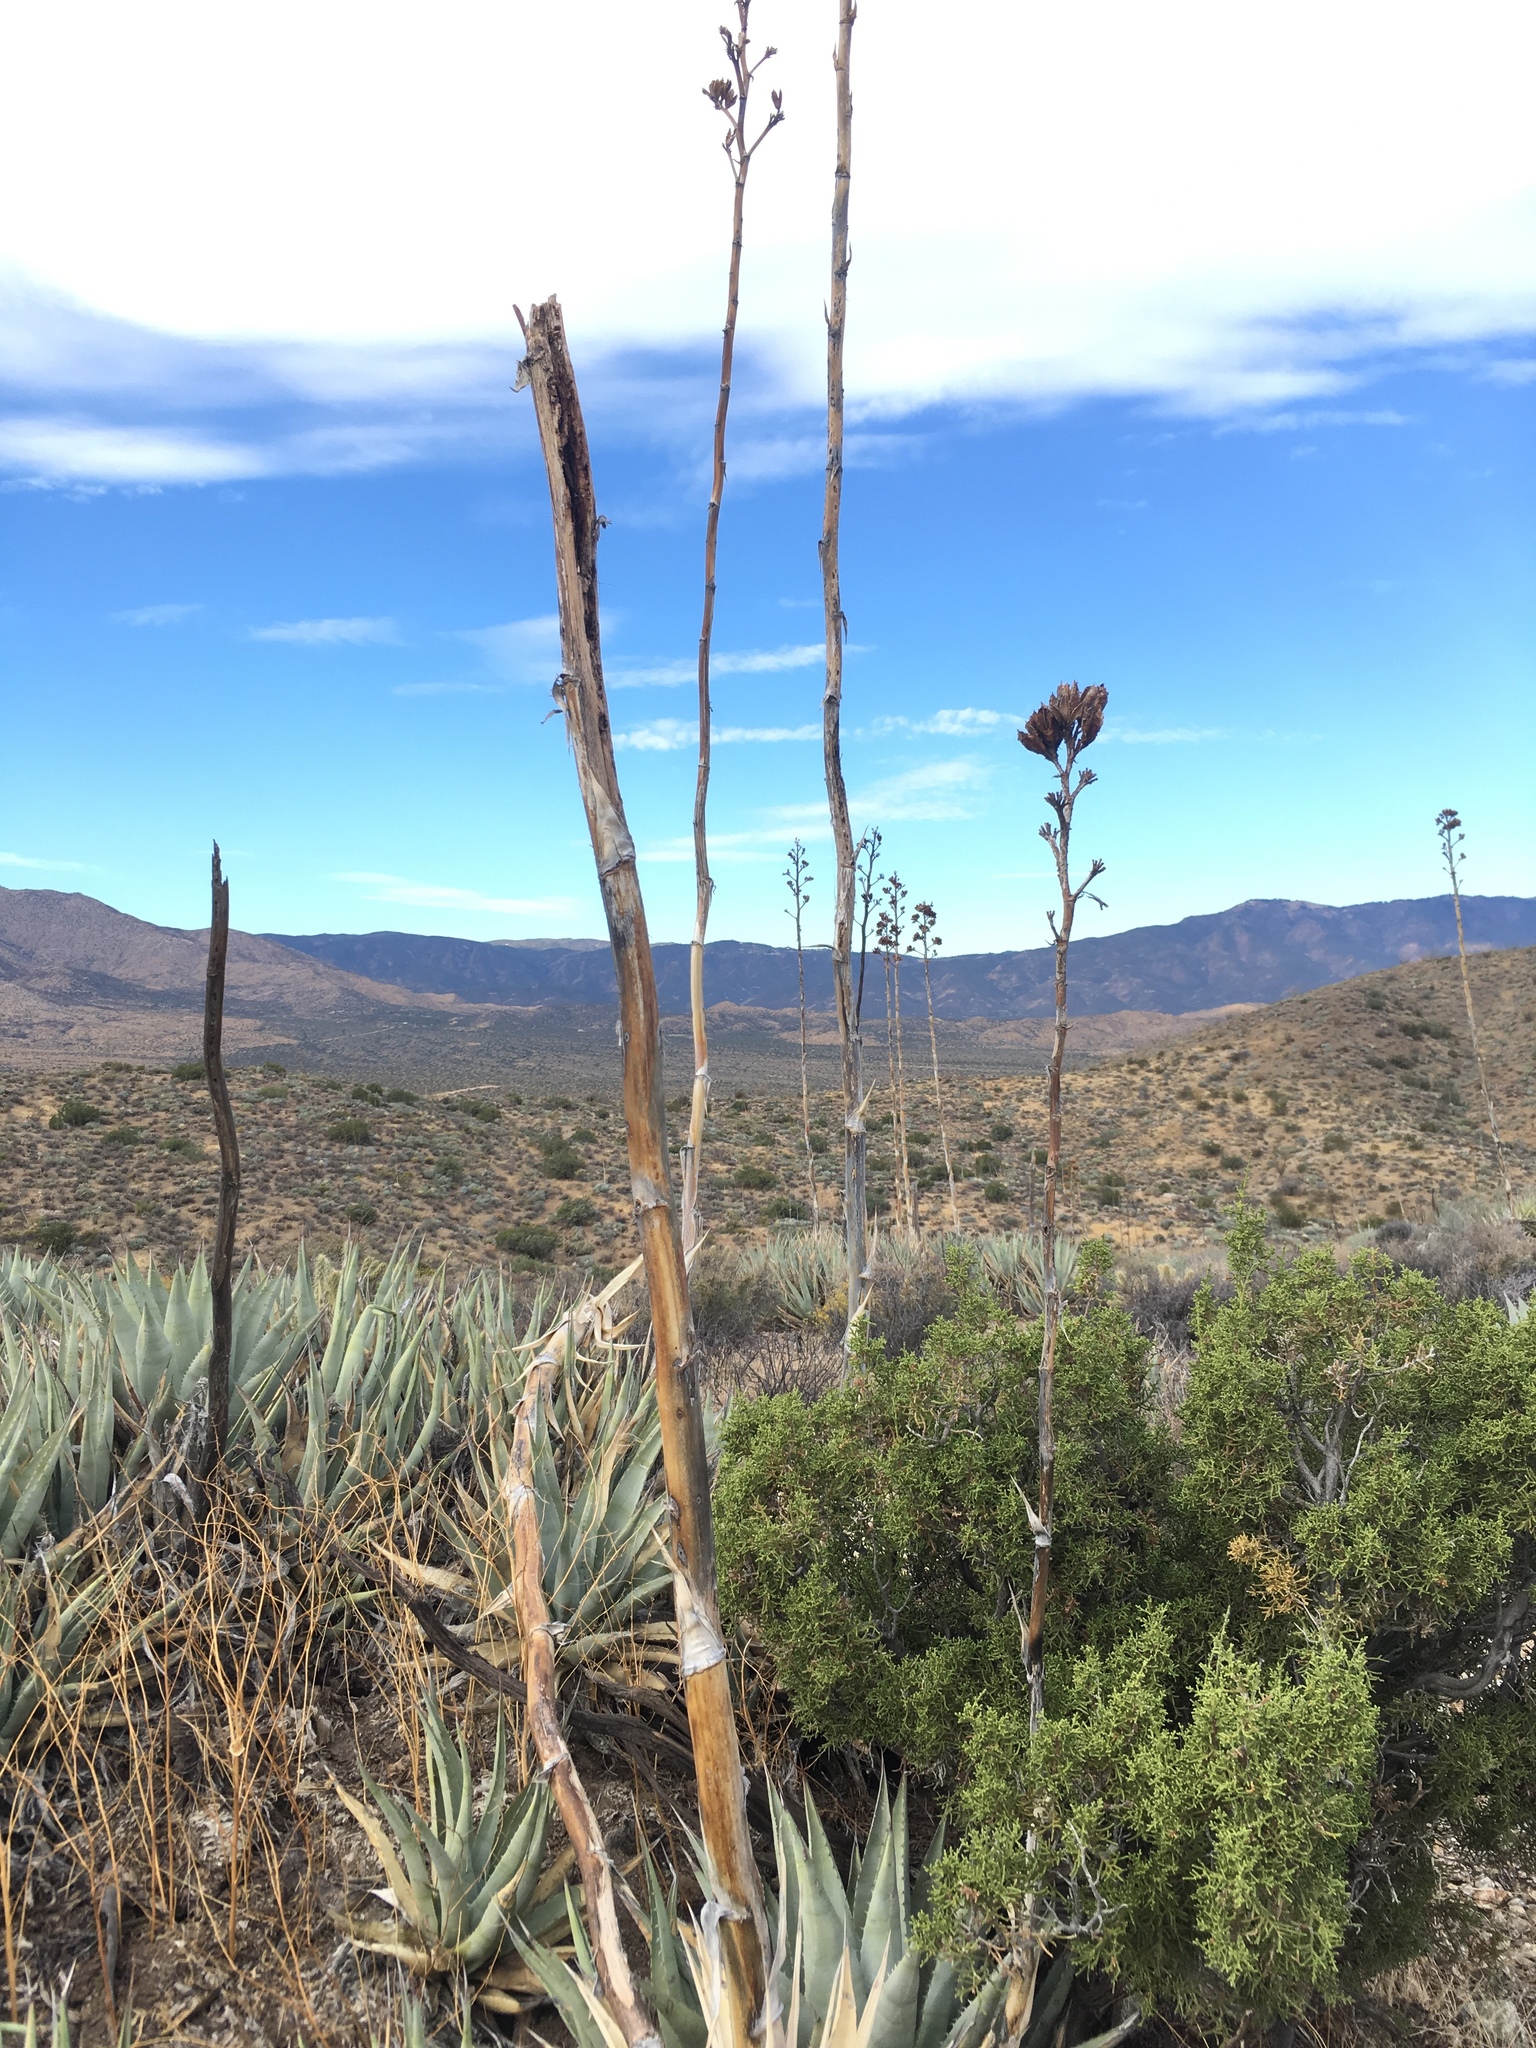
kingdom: Plantae
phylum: Tracheophyta
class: Liliopsida
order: Asparagales
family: Asparagaceae
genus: Agave
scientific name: Agave deserti
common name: Desert agave
